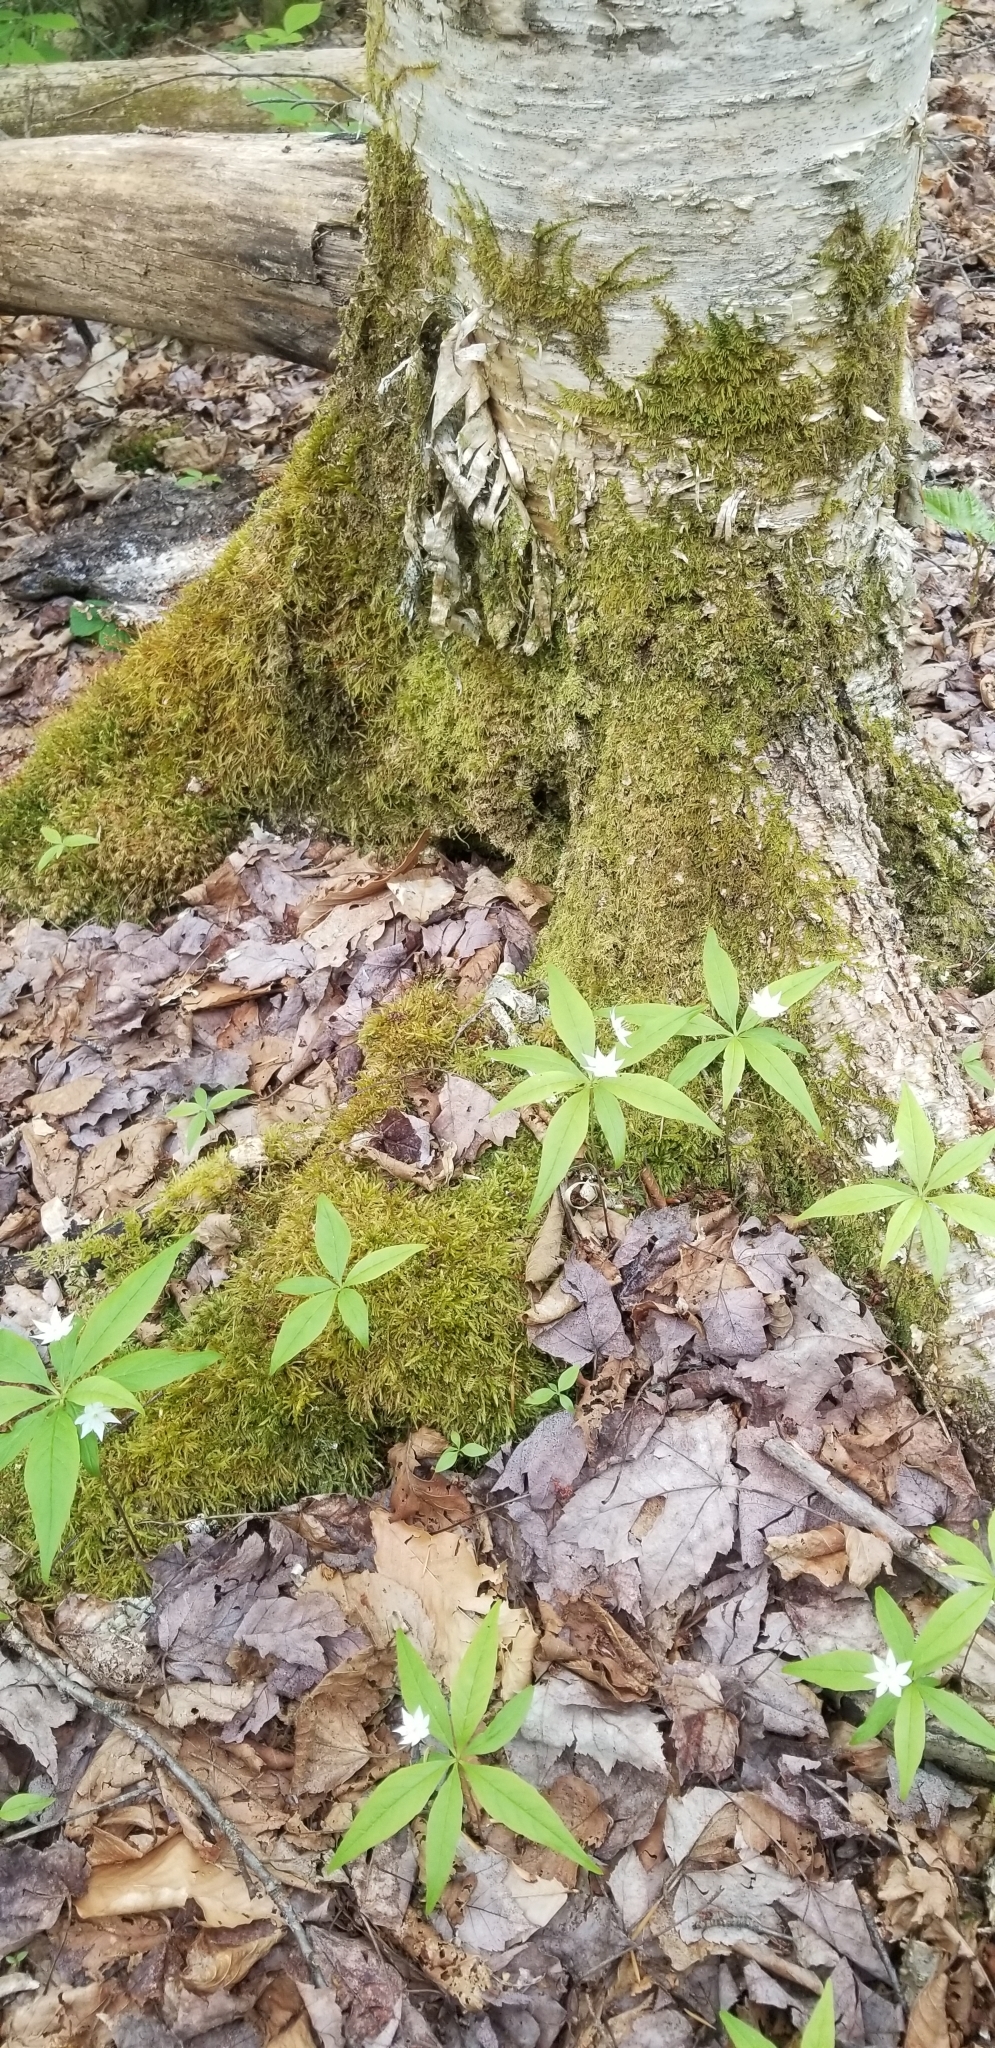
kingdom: Plantae
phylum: Tracheophyta
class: Magnoliopsida
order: Ericales
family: Primulaceae
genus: Lysimachia
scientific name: Lysimachia borealis
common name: American starflower
